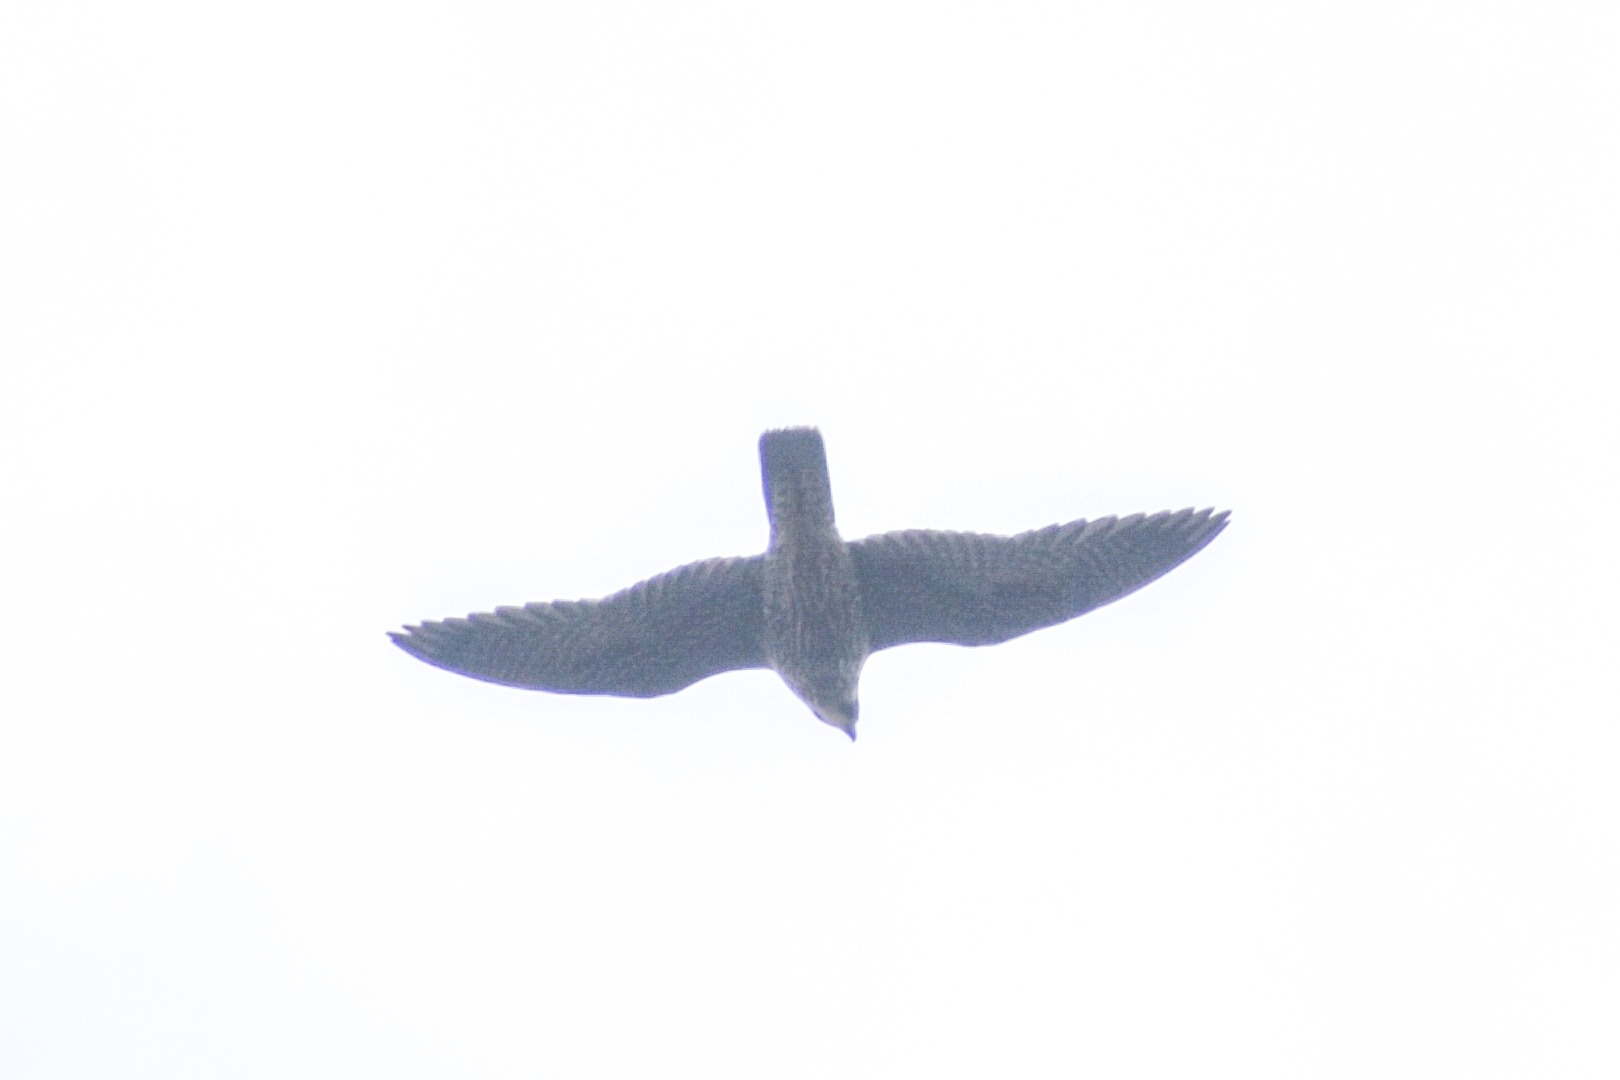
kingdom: Animalia
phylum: Chordata
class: Aves
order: Falconiformes
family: Falconidae
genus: Falco
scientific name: Falco peregrinus
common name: Peregrine falcon
